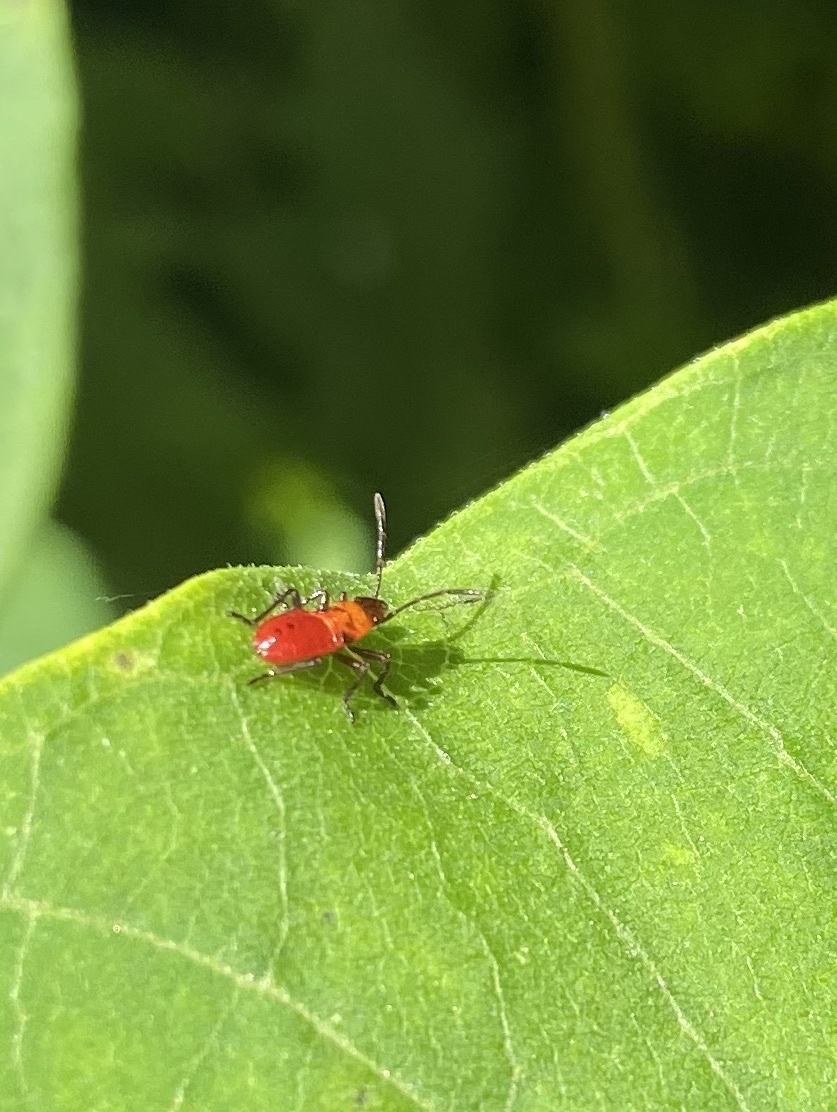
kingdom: Animalia
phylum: Arthropoda
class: Insecta
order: Hemiptera
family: Lygaeidae
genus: Oncopeltus
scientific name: Oncopeltus fasciatus
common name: Large milkweed bug
